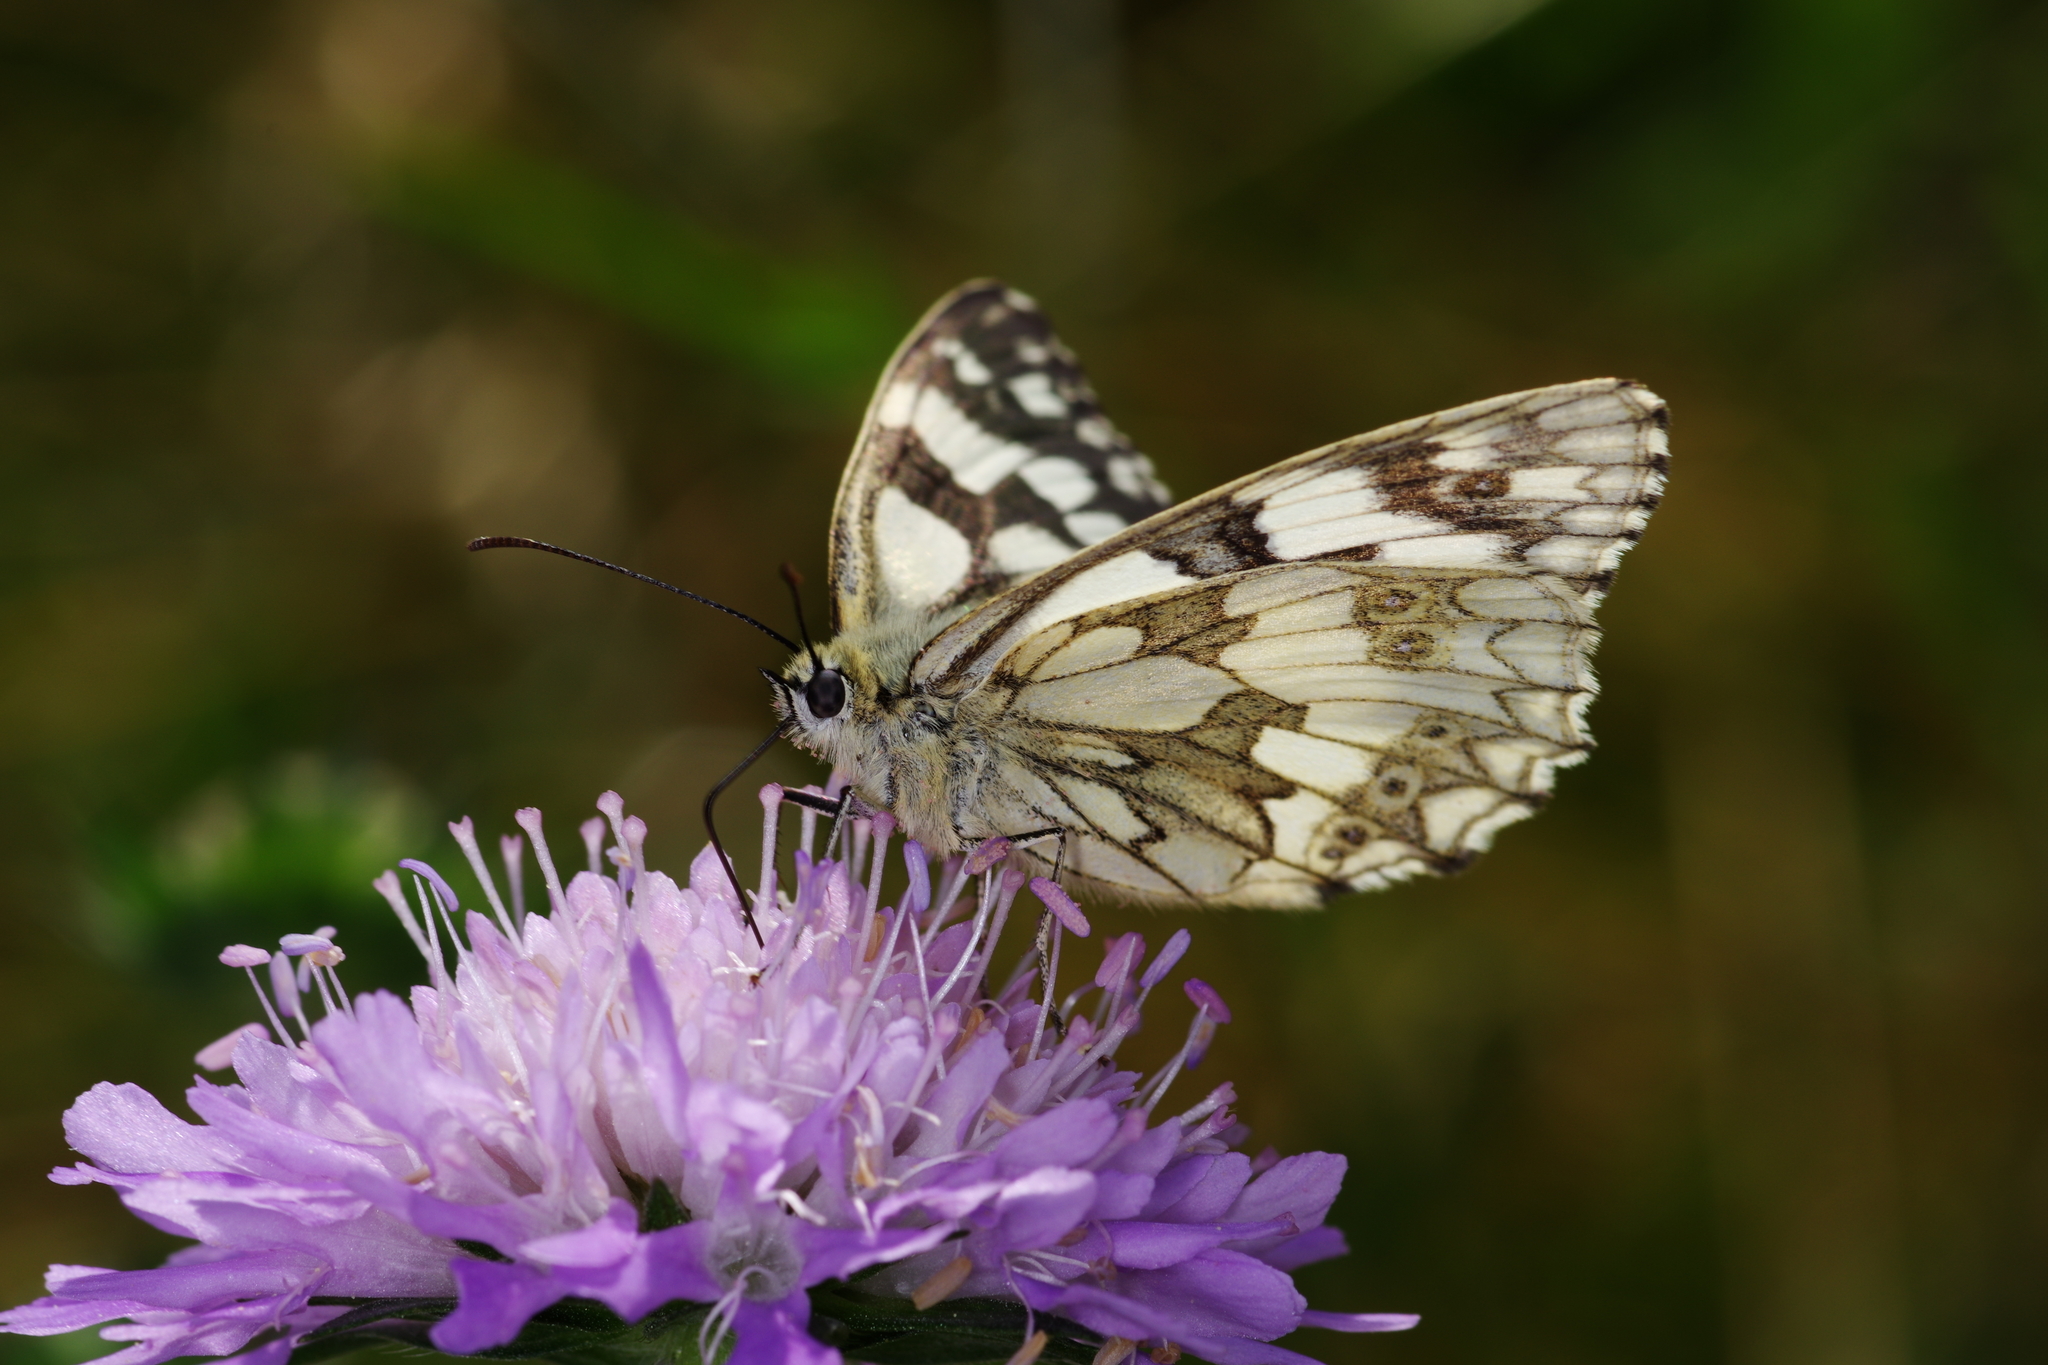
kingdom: Animalia
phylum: Arthropoda
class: Insecta
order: Lepidoptera
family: Nymphalidae
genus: Melanargia
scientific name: Melanargia galathea
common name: Marbled white
